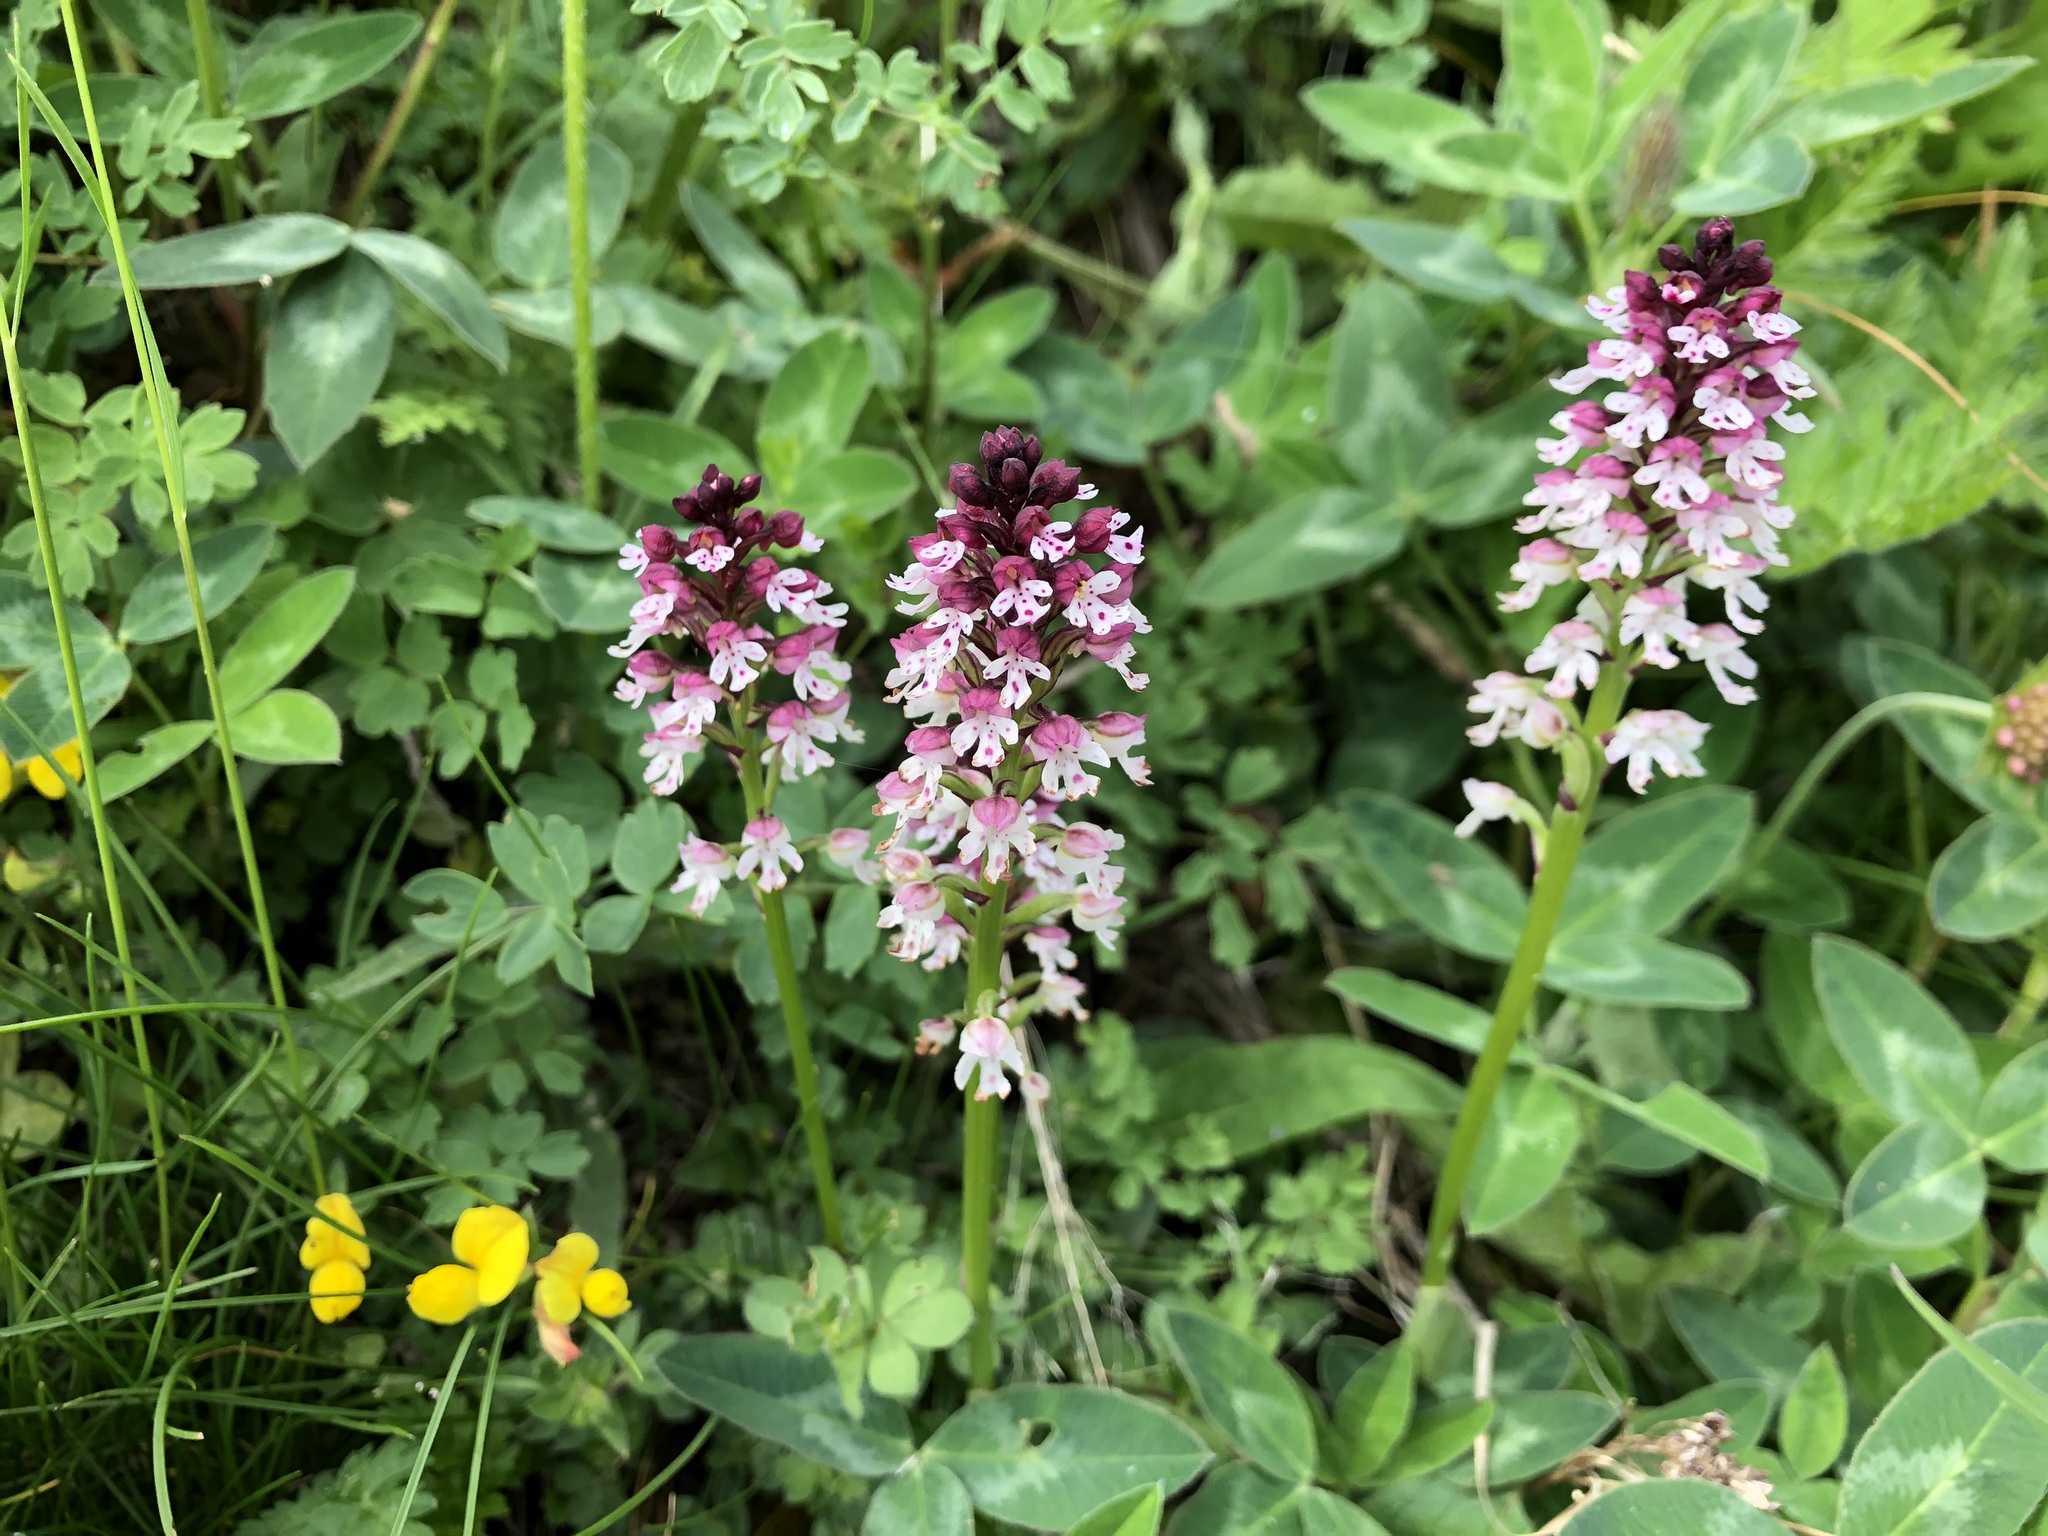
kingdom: Plantae
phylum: Tracheophyta
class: Liliopsida
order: Asparagales
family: Orchidaceae
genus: Neotinea
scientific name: Neotinea ustulata
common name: Burnt orchid
